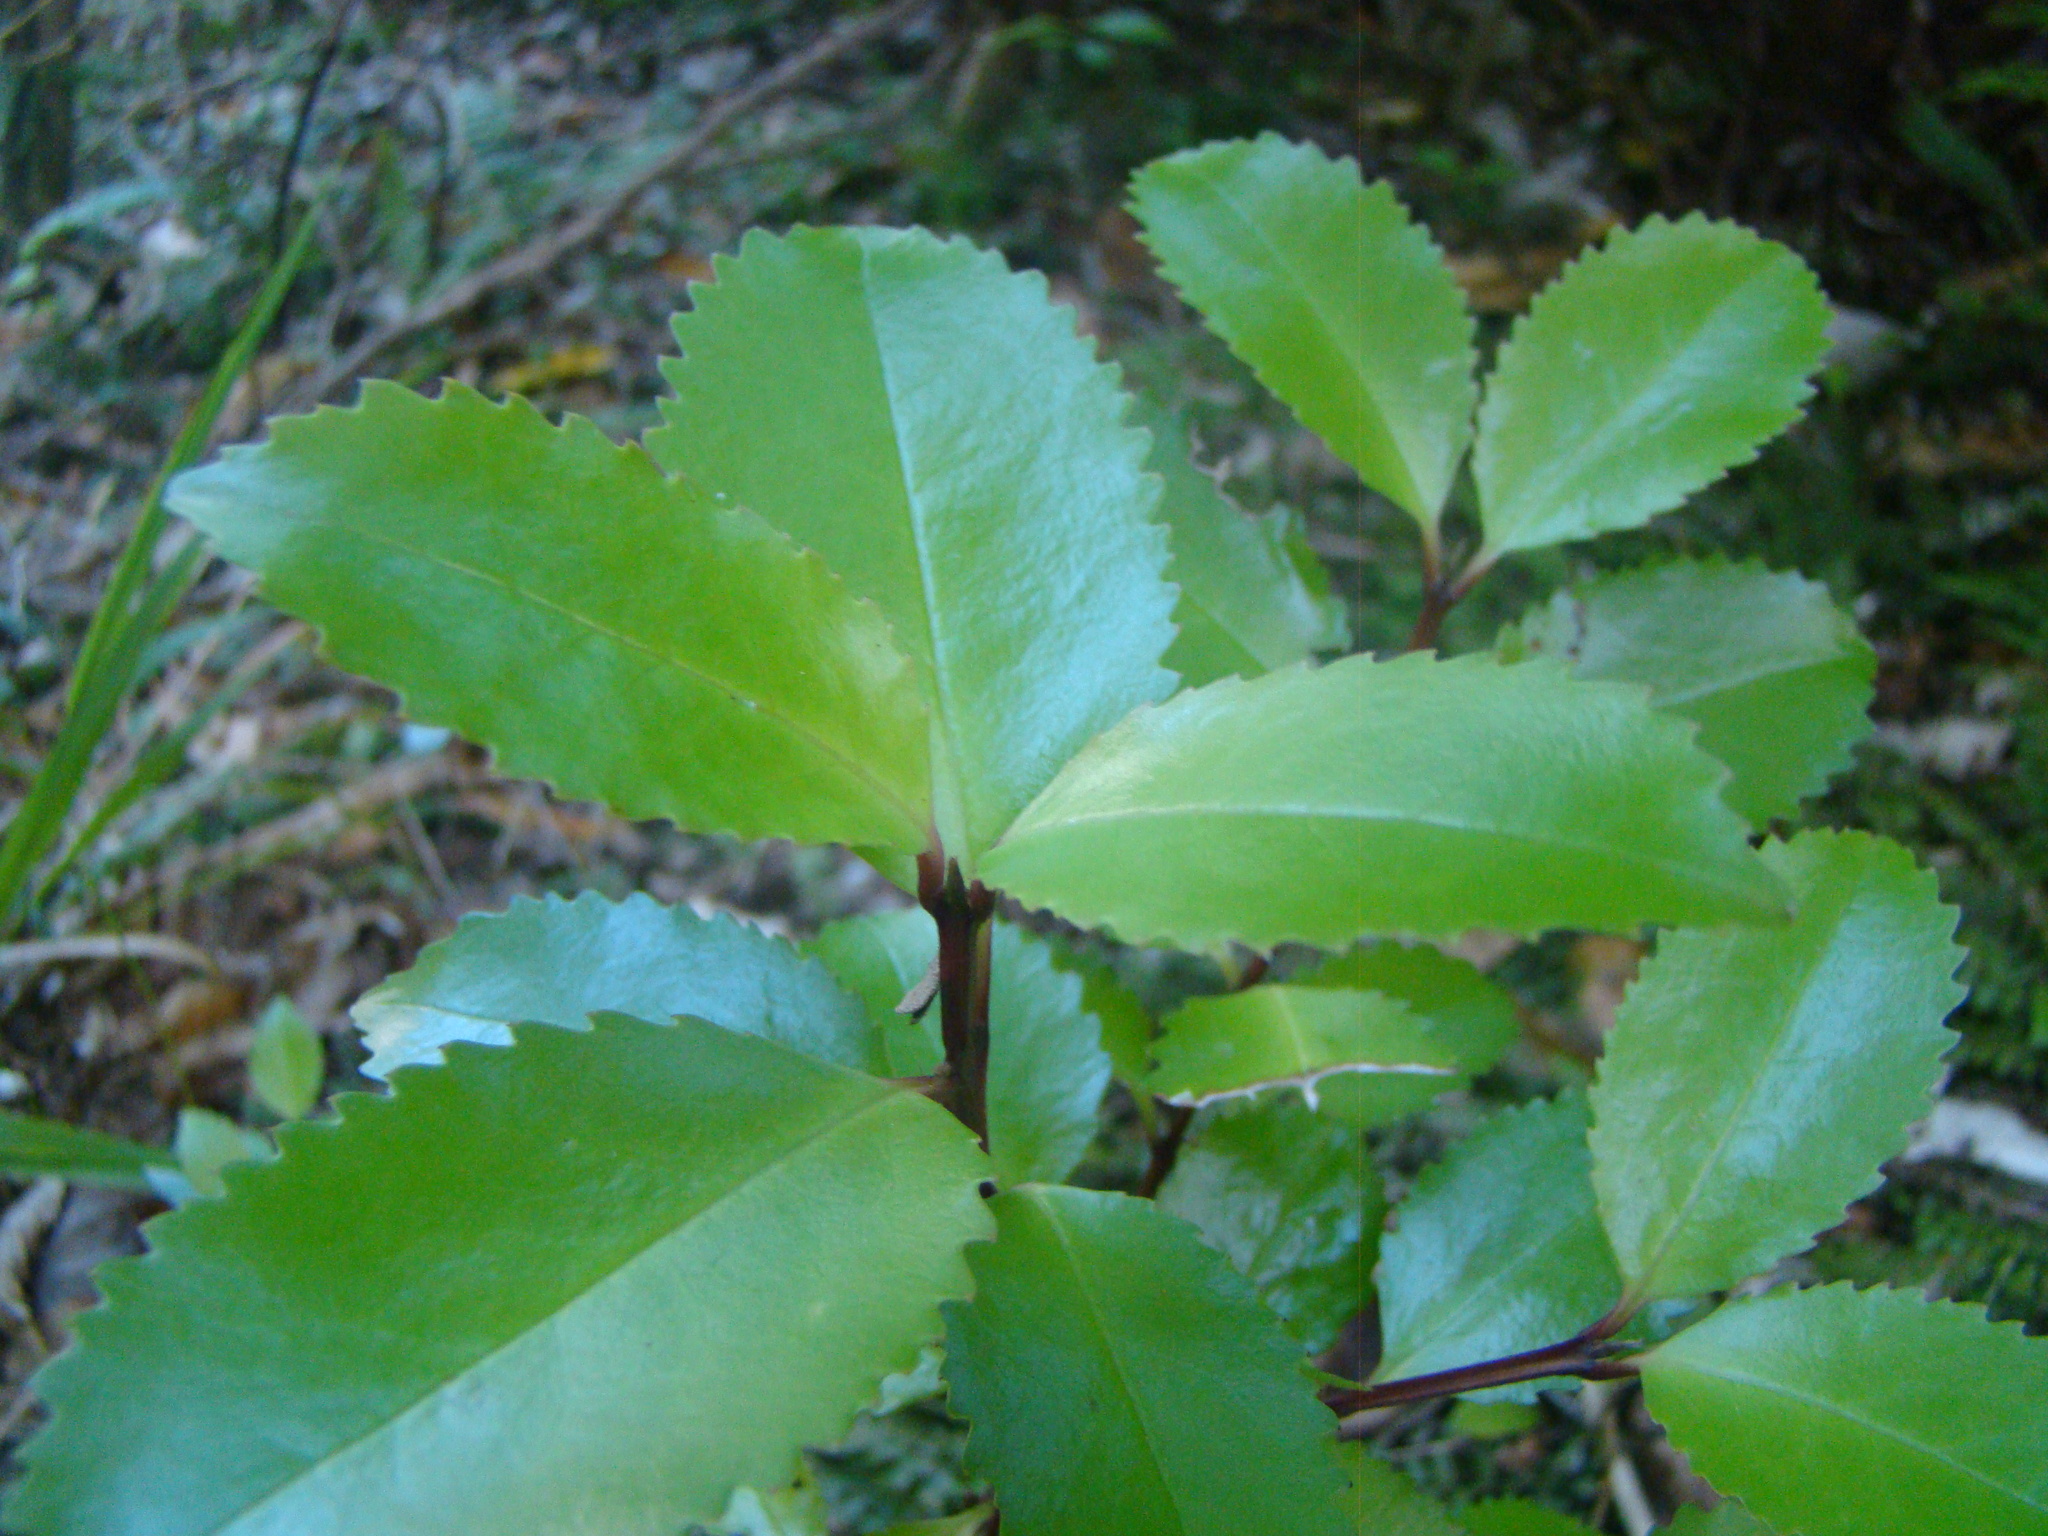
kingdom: Plantae
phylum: Tracheophyta
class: Magnoliopsida
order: Laurales
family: Atherospermataceae
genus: Laurelia
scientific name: Laurelia novae-zelandiae
